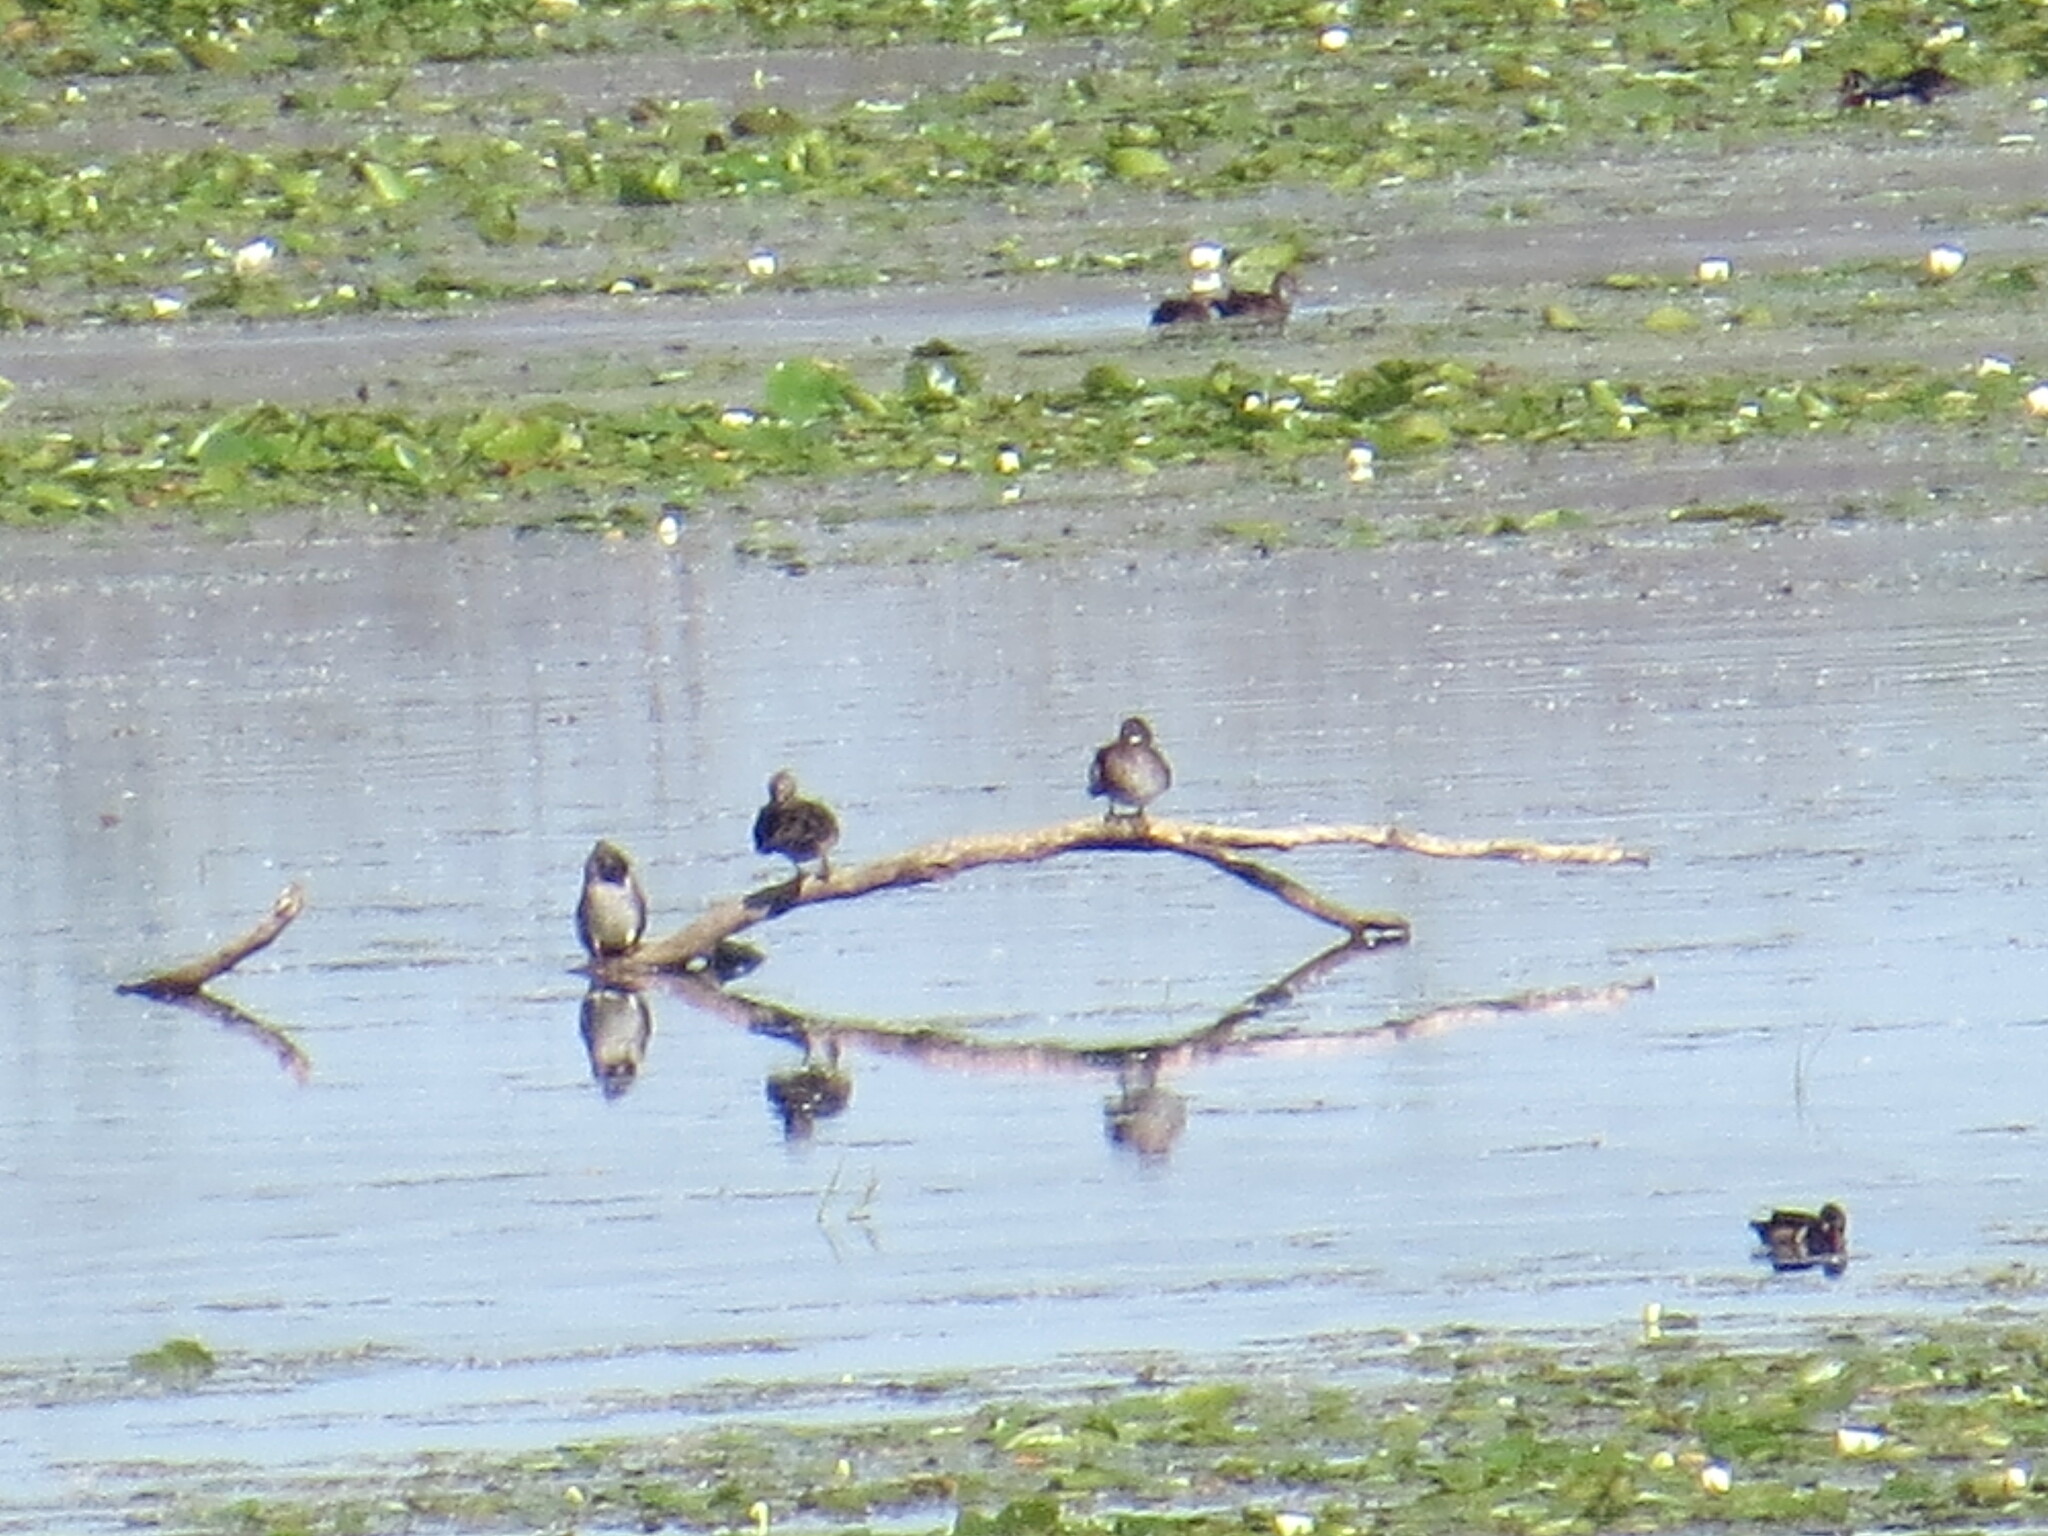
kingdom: Animalia
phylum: Chordata
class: Aves
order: Anseriformes
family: Anatidae
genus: Aix
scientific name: Aix sponsa
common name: Wood duck
